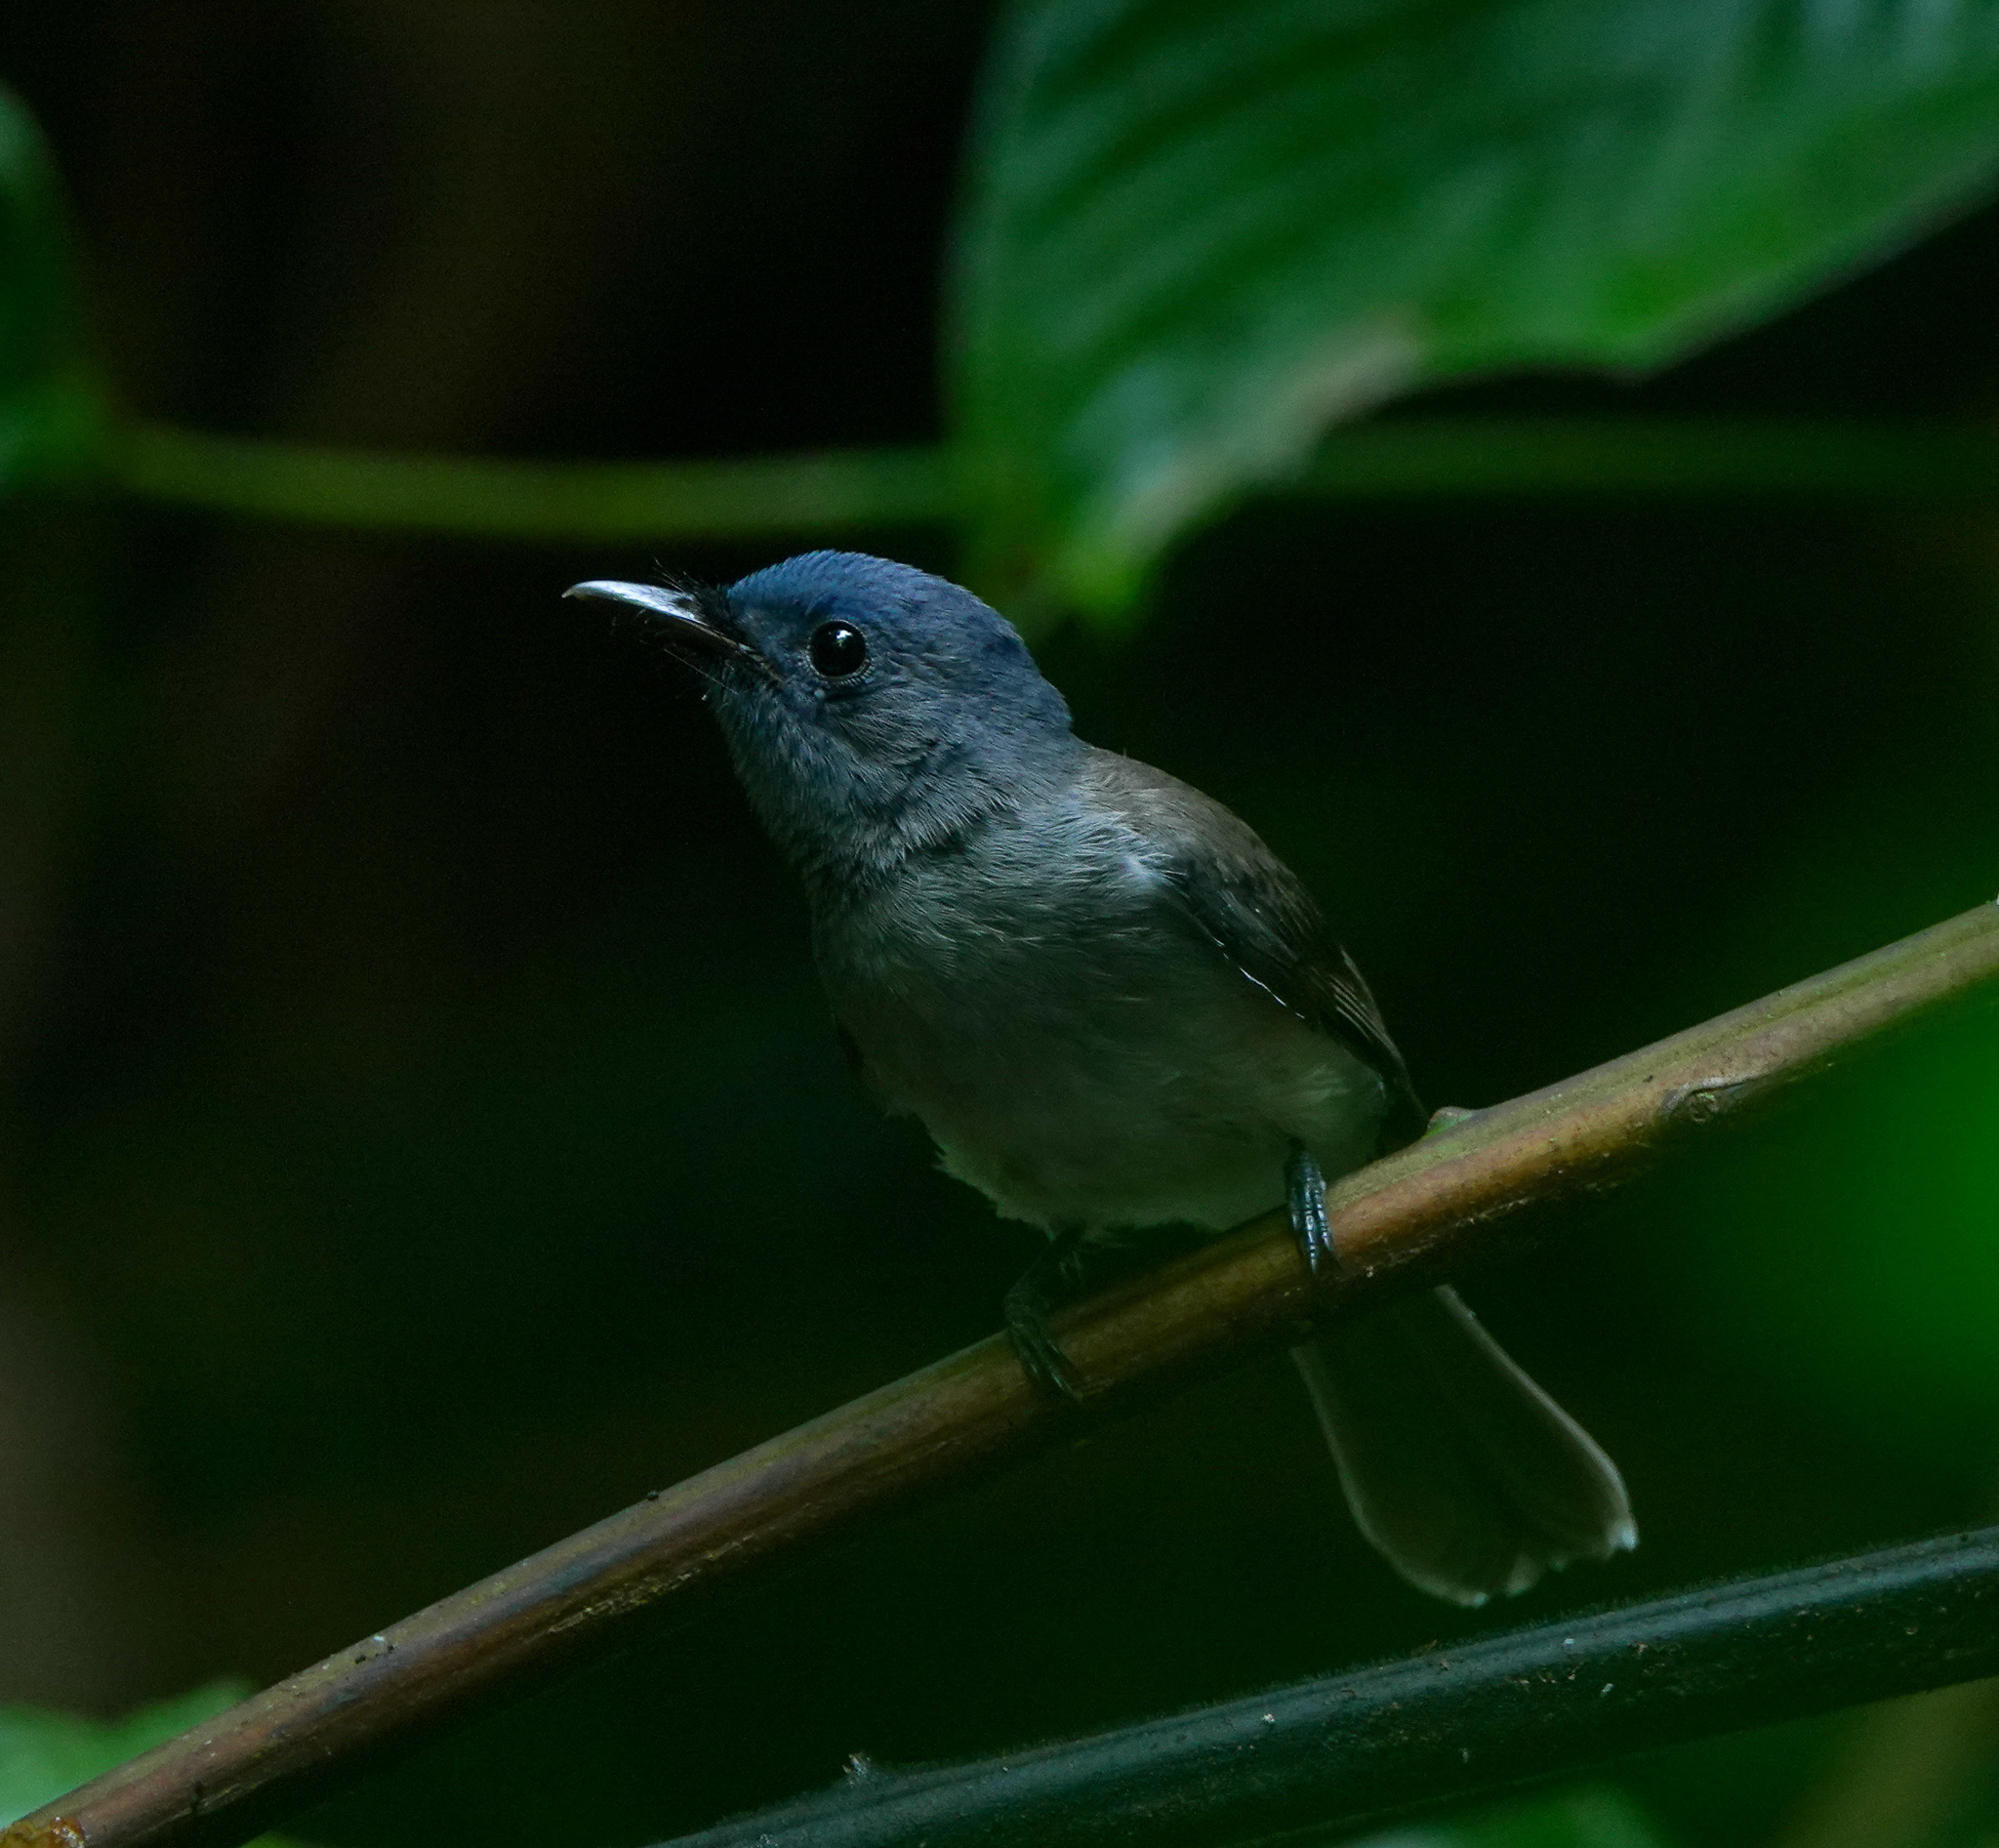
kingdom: Animalia
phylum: Chordata
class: Aves
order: Passeriformes
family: Monarchidae
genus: Hypothymis
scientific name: Hypothymis azurea
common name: Black-naped monarch
